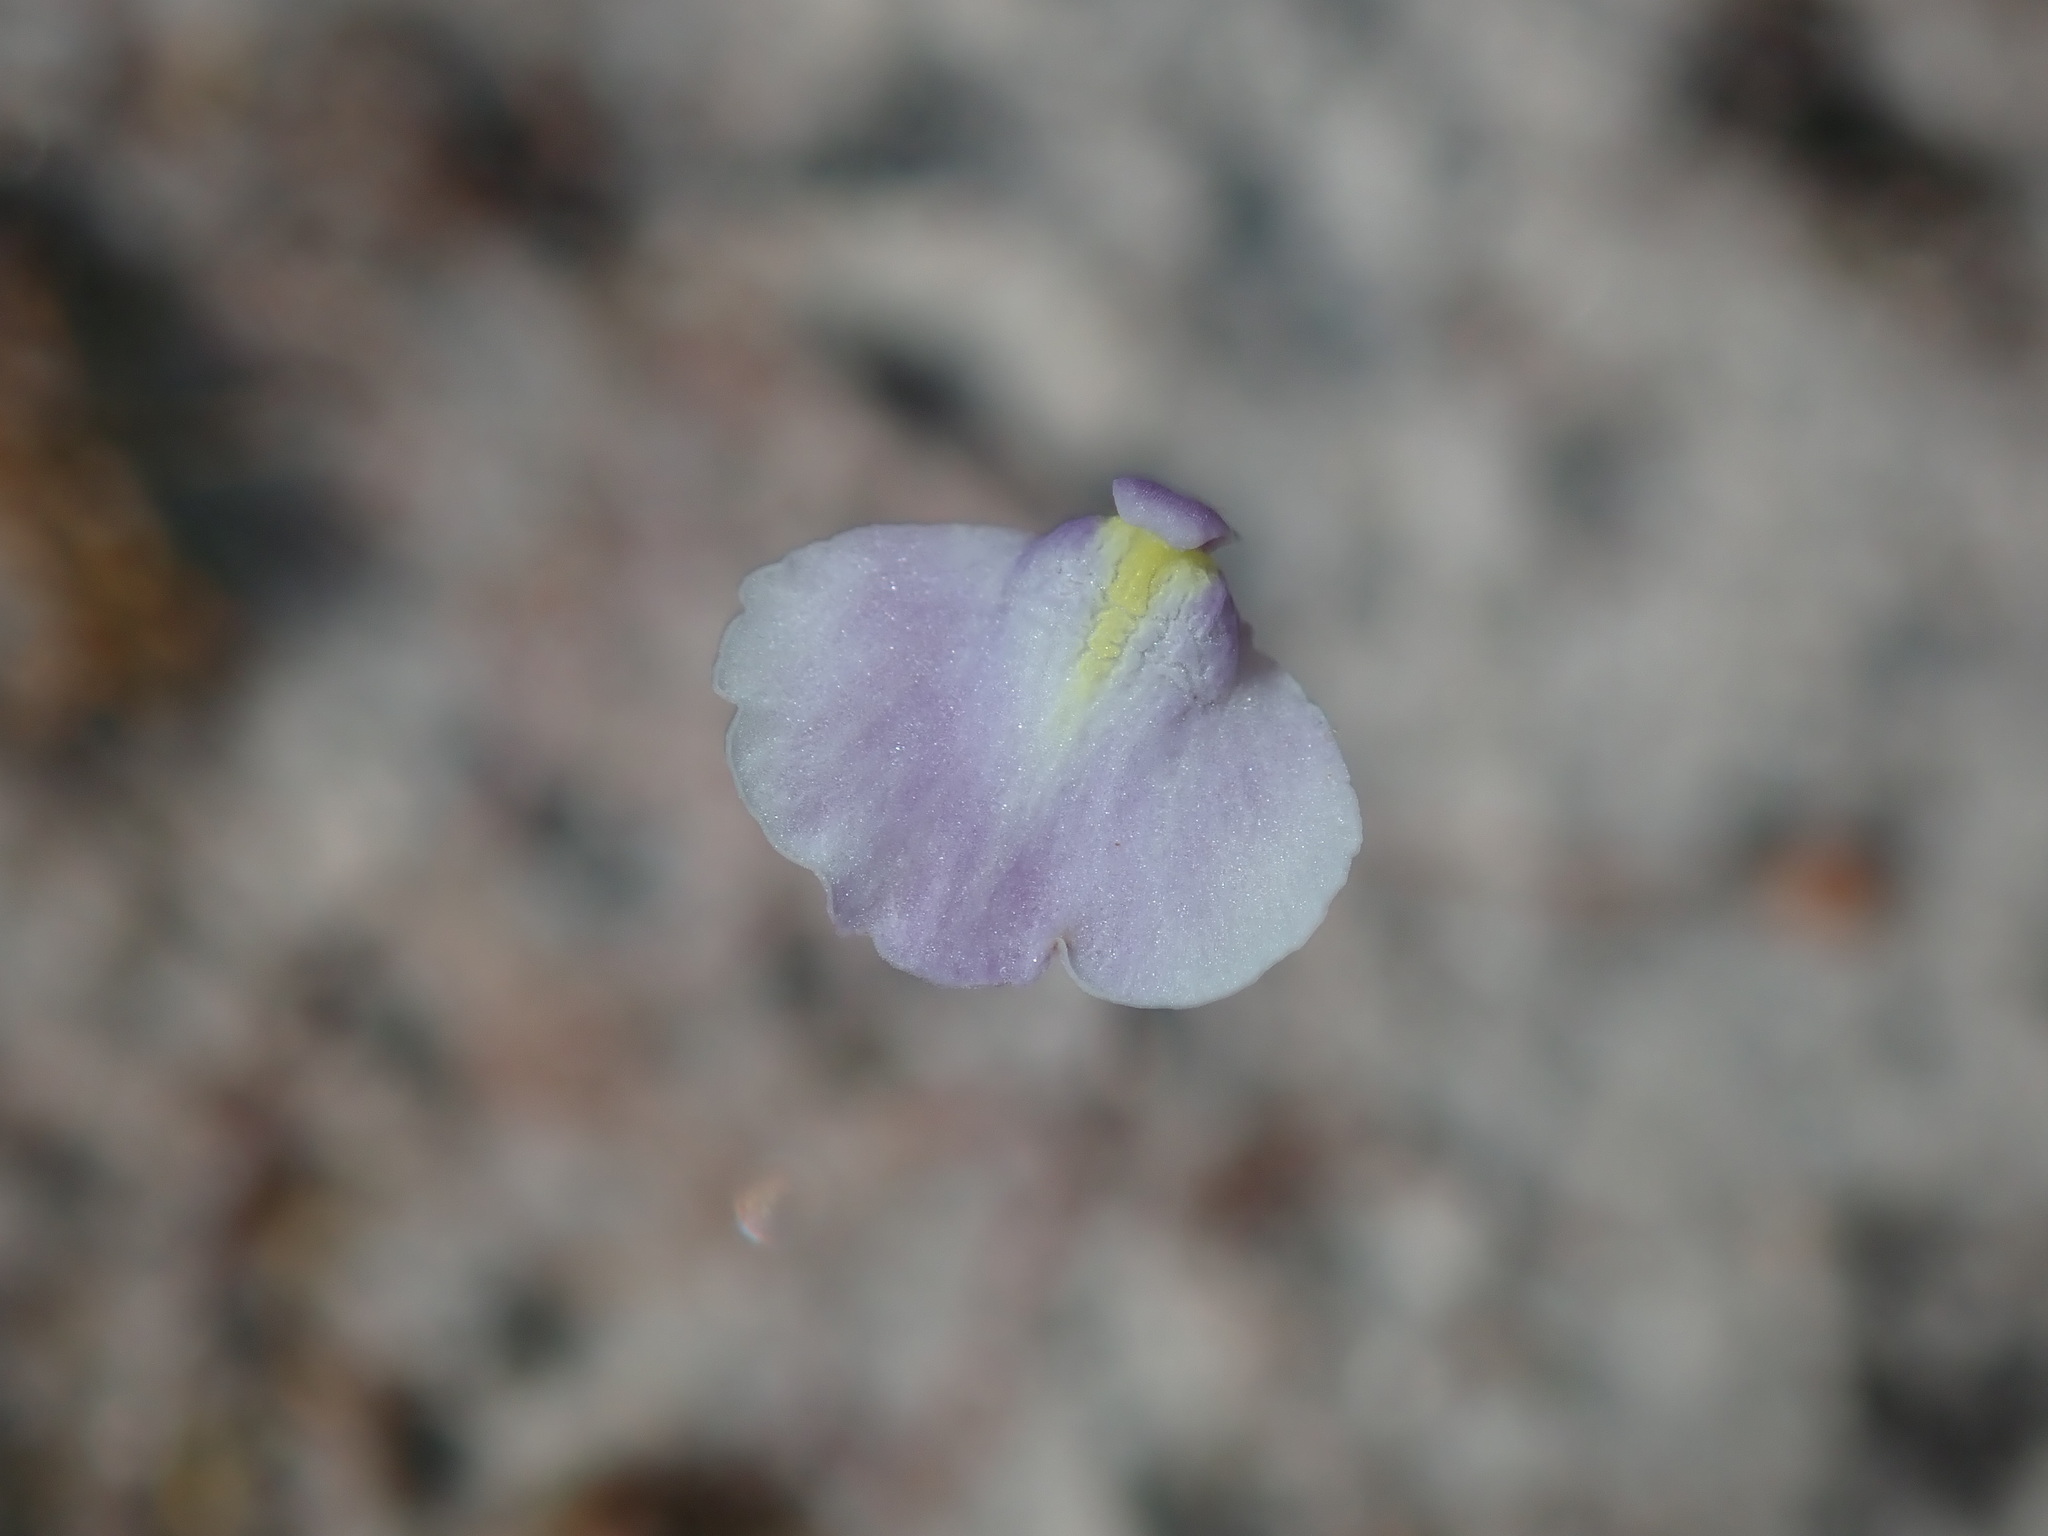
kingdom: Plantae
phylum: Tracheophyta
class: Magnoliopsida
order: Lamiales
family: Lentibulariaceae
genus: Utricularia
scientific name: Utricularia lateriflora
